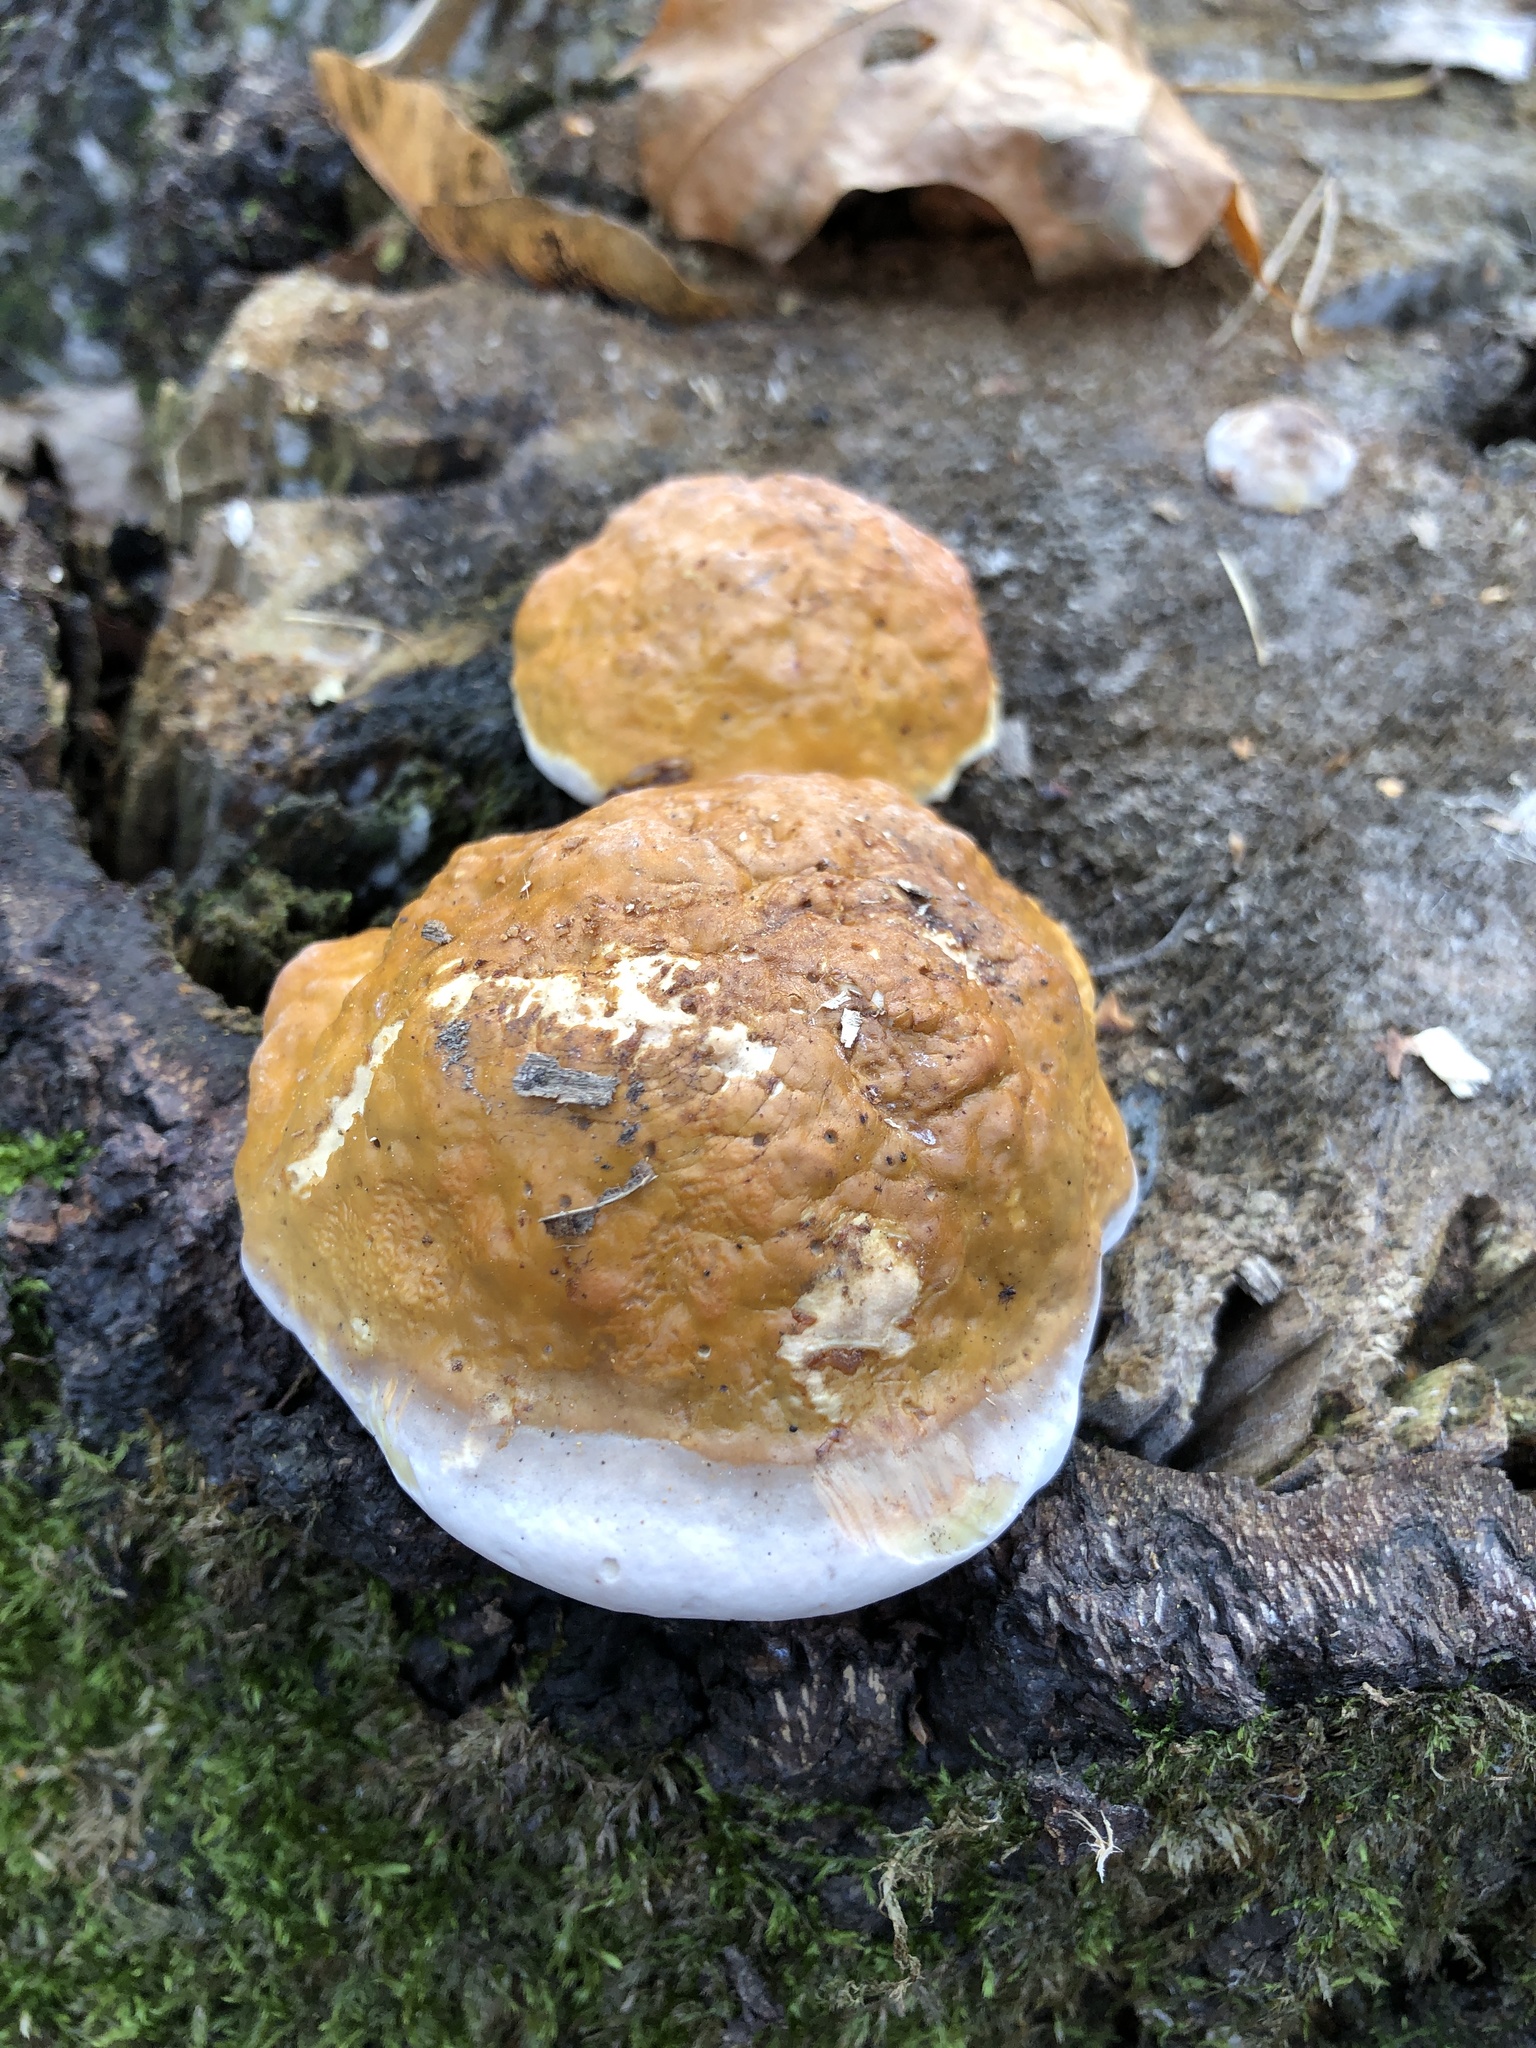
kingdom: Fungi
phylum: Basidiomycota
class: Agaricomycetes
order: Polyporales
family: Fomitopsidaceae
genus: Fomitopsis
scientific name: Fomitopsis pinicola
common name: Red-belted bracket
